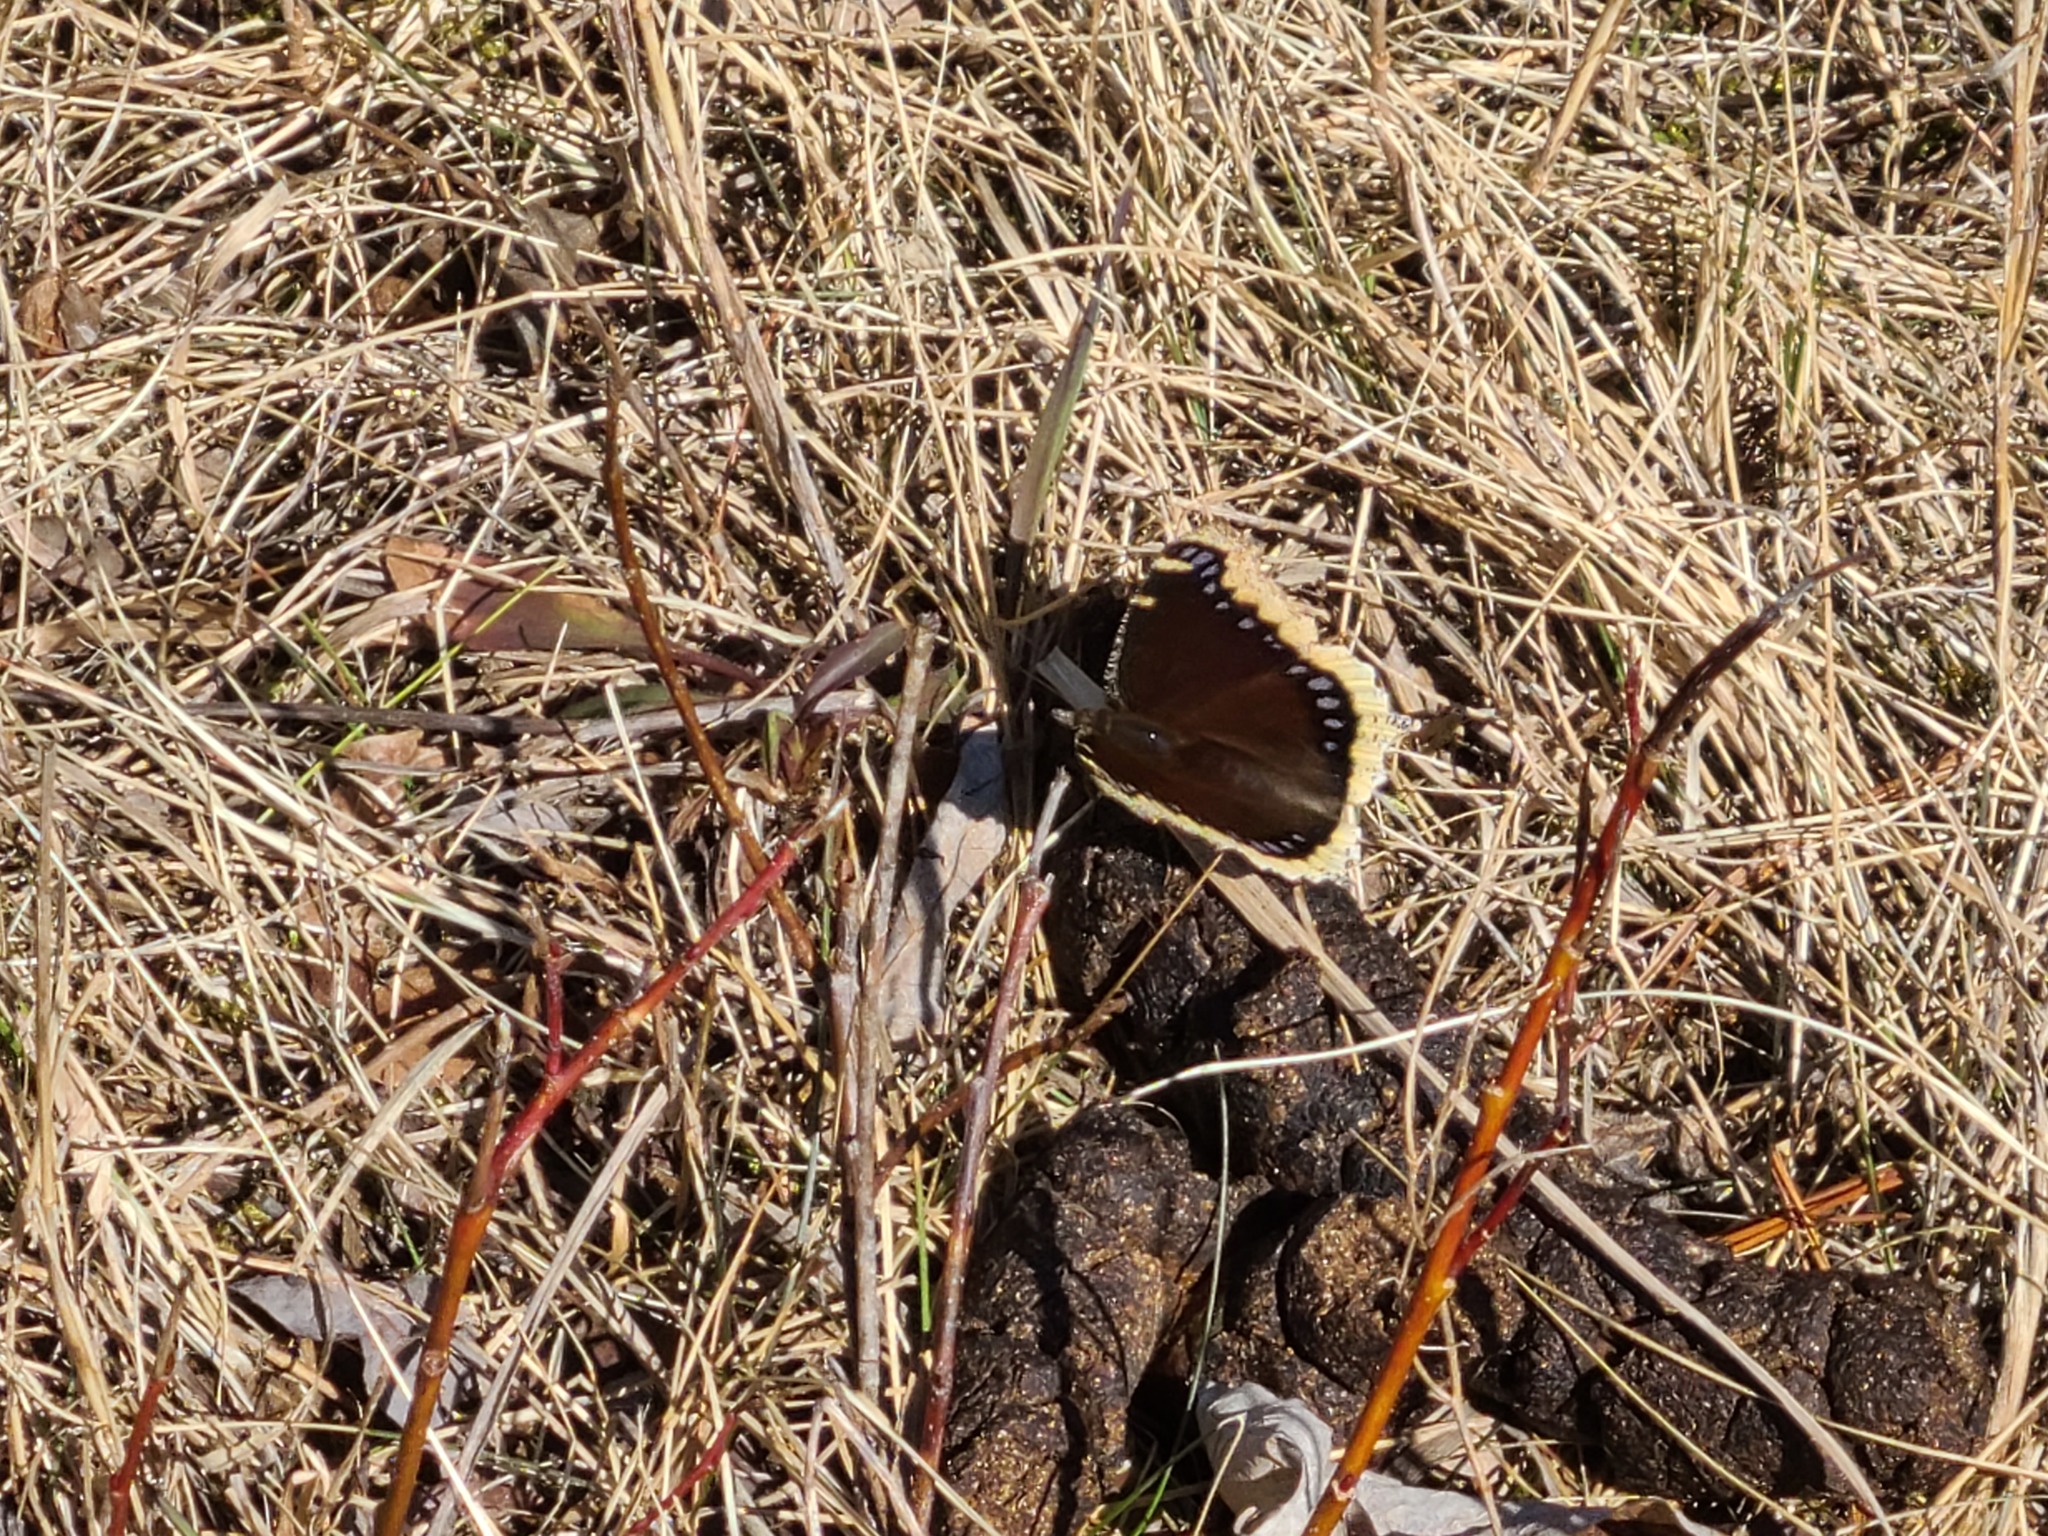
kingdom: Animalia
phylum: Arthropoda
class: Insecta
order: Lepidoptera
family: Nymphalidae
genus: Nymphalis
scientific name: Nymphalis antiopa
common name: Camberwell beauty
